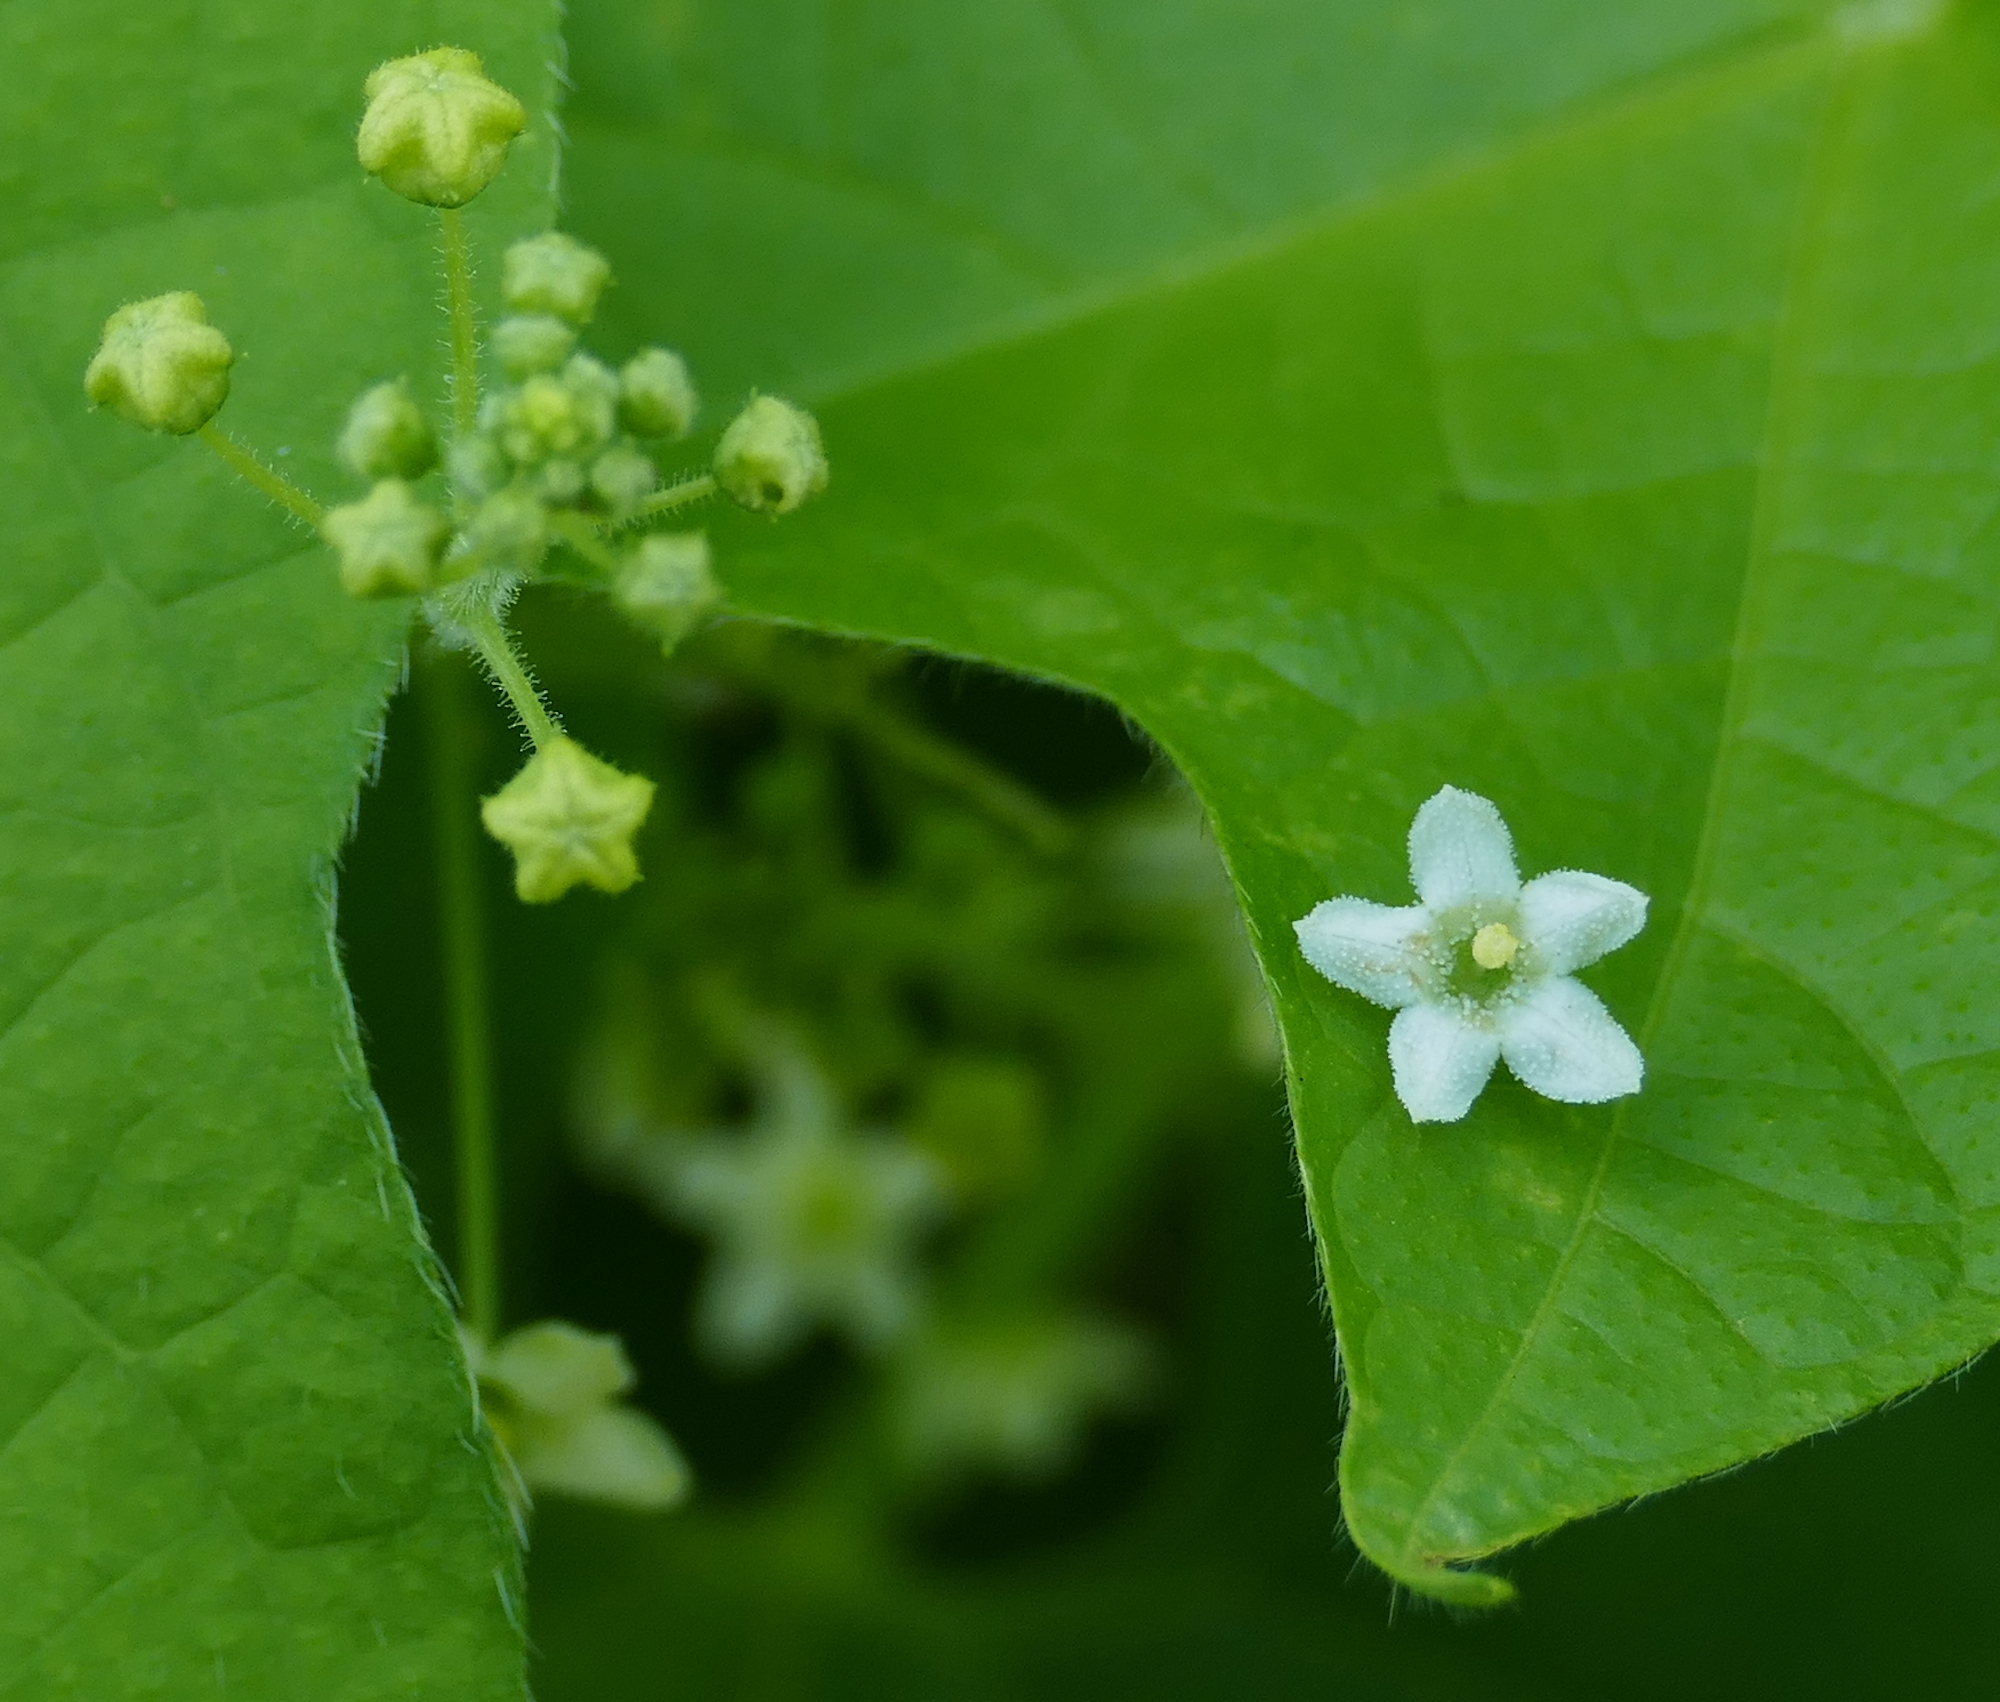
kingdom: Plantae
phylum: Tracheophyta
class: Magnoliopsida
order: Cucurbitales
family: Cucurbitaceae
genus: Echinopepon
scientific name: Echinopepon wrightii
